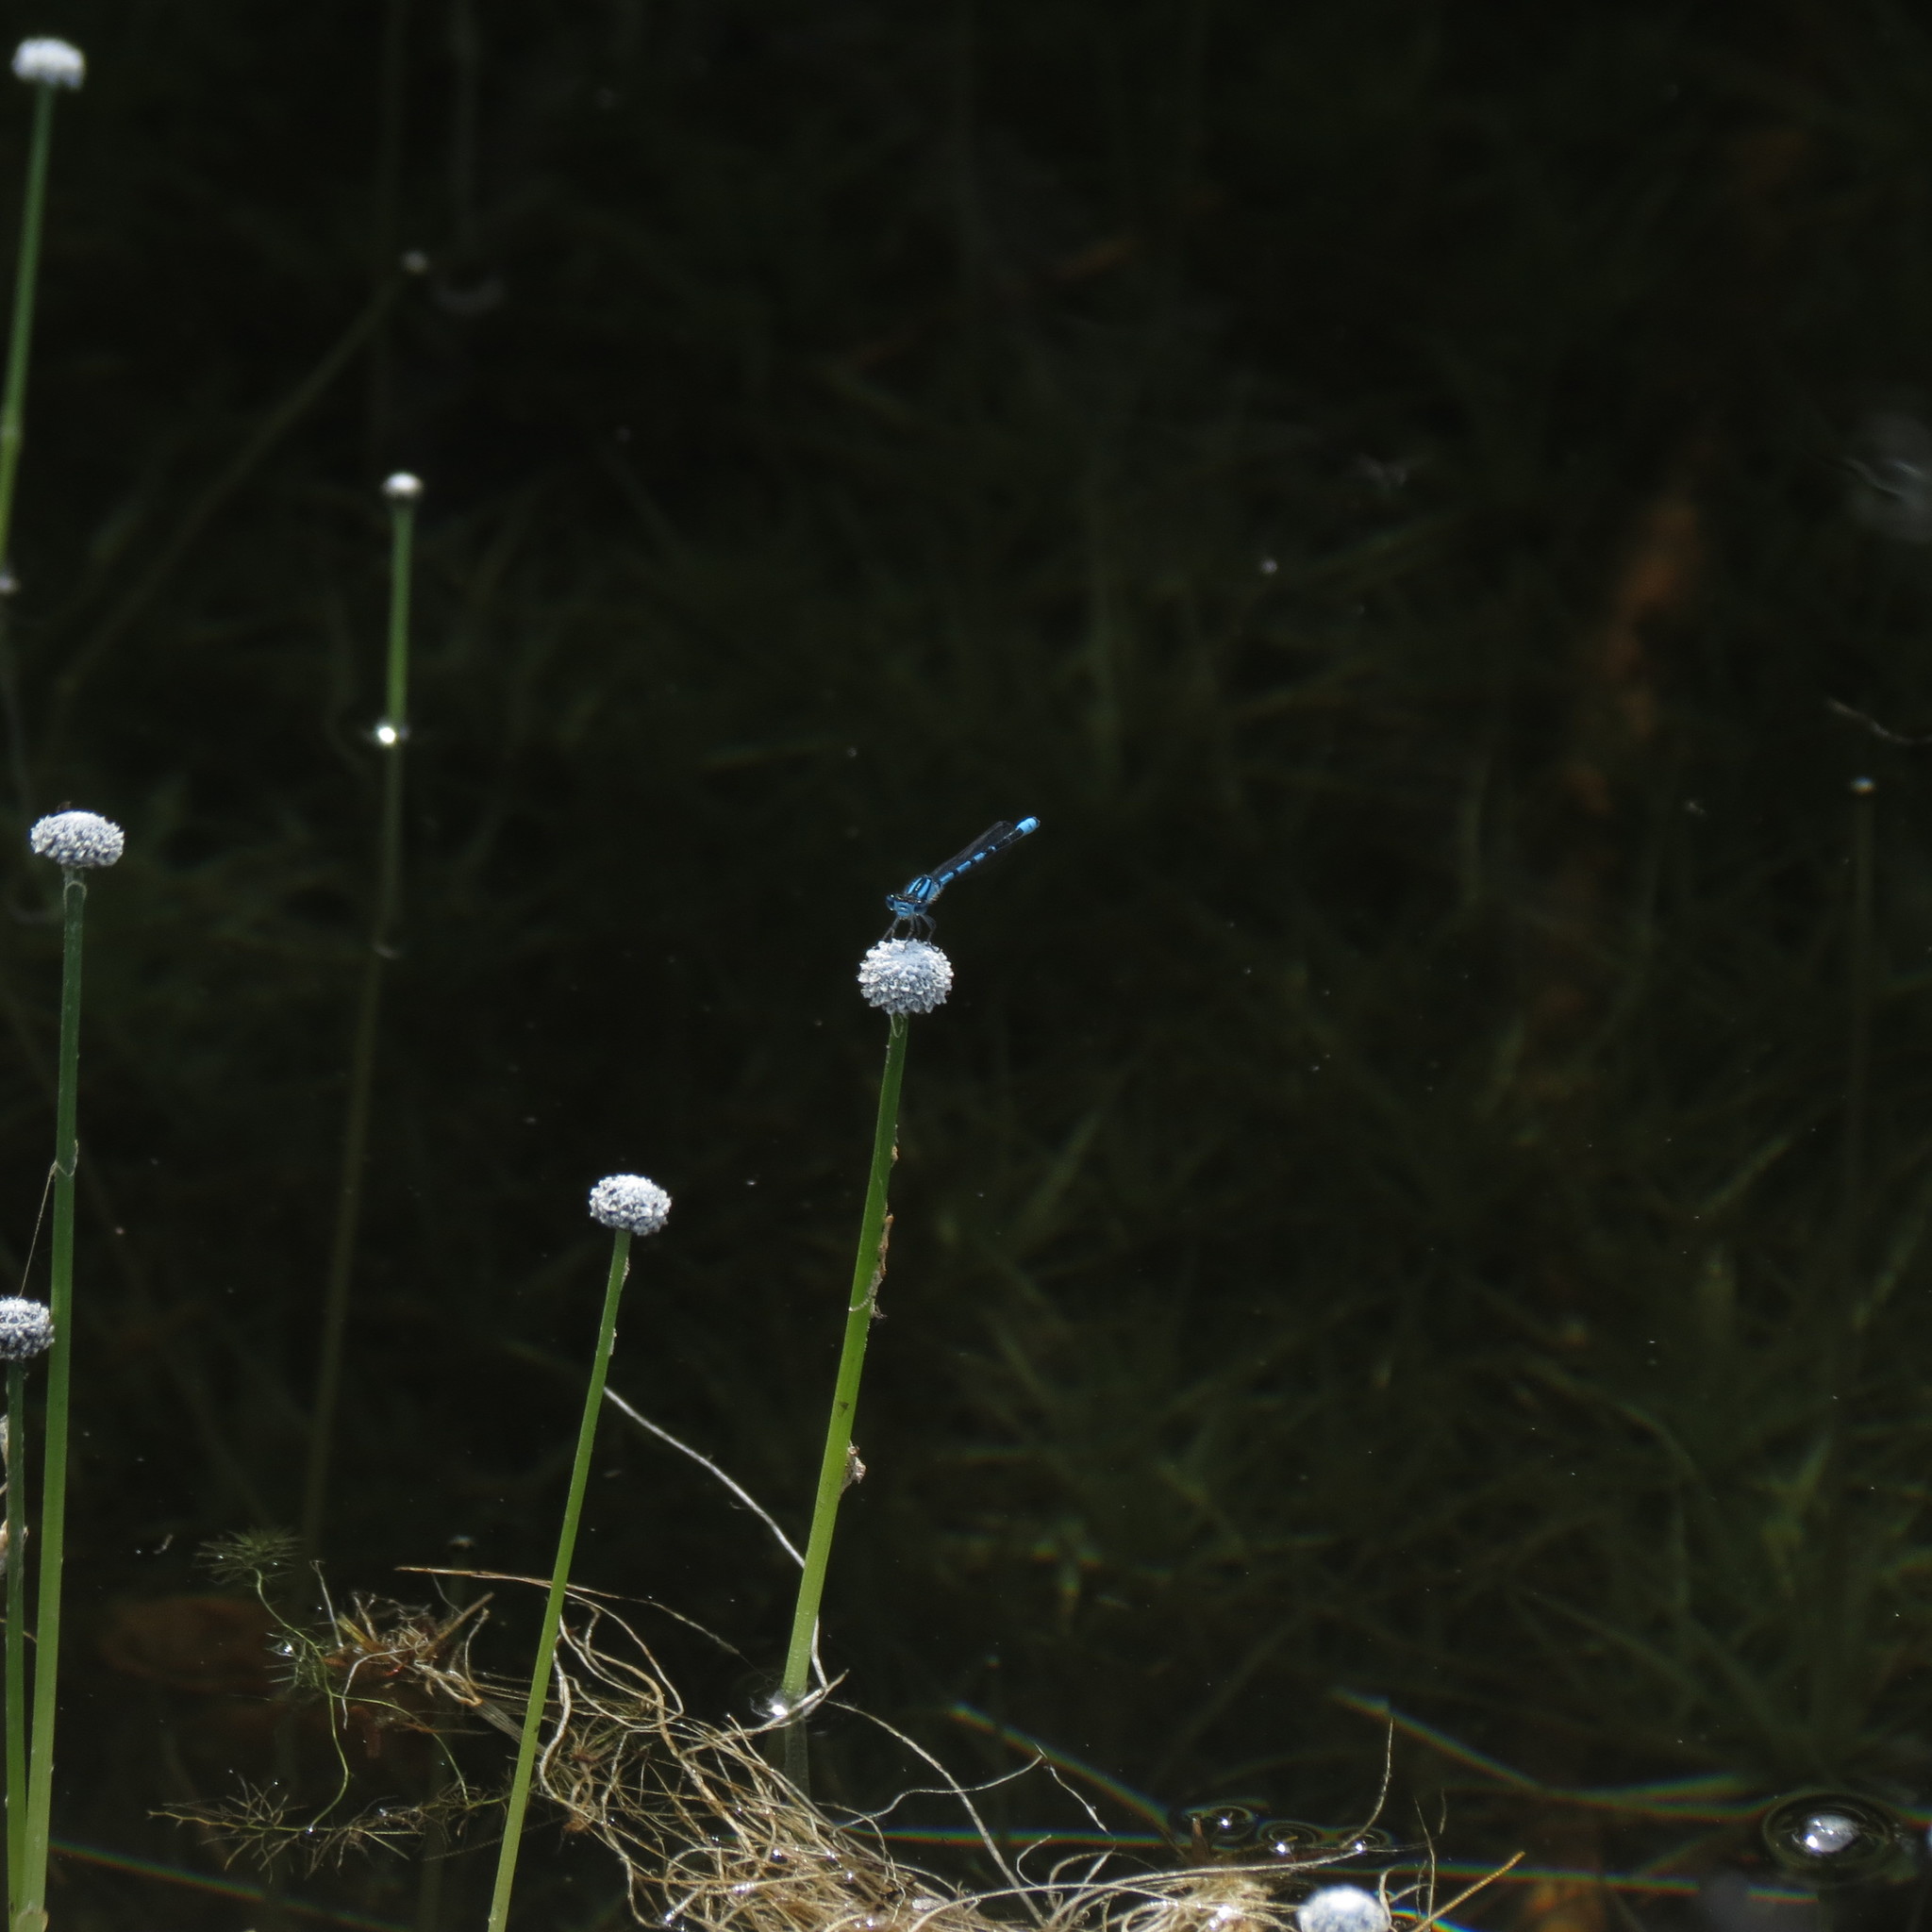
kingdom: Plantae
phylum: Tracheophyta
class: Liliopsida
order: Poales
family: Eriocaulaceae
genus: Eriocaulon
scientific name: Eriocaulon aquaticum
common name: Pipewort
